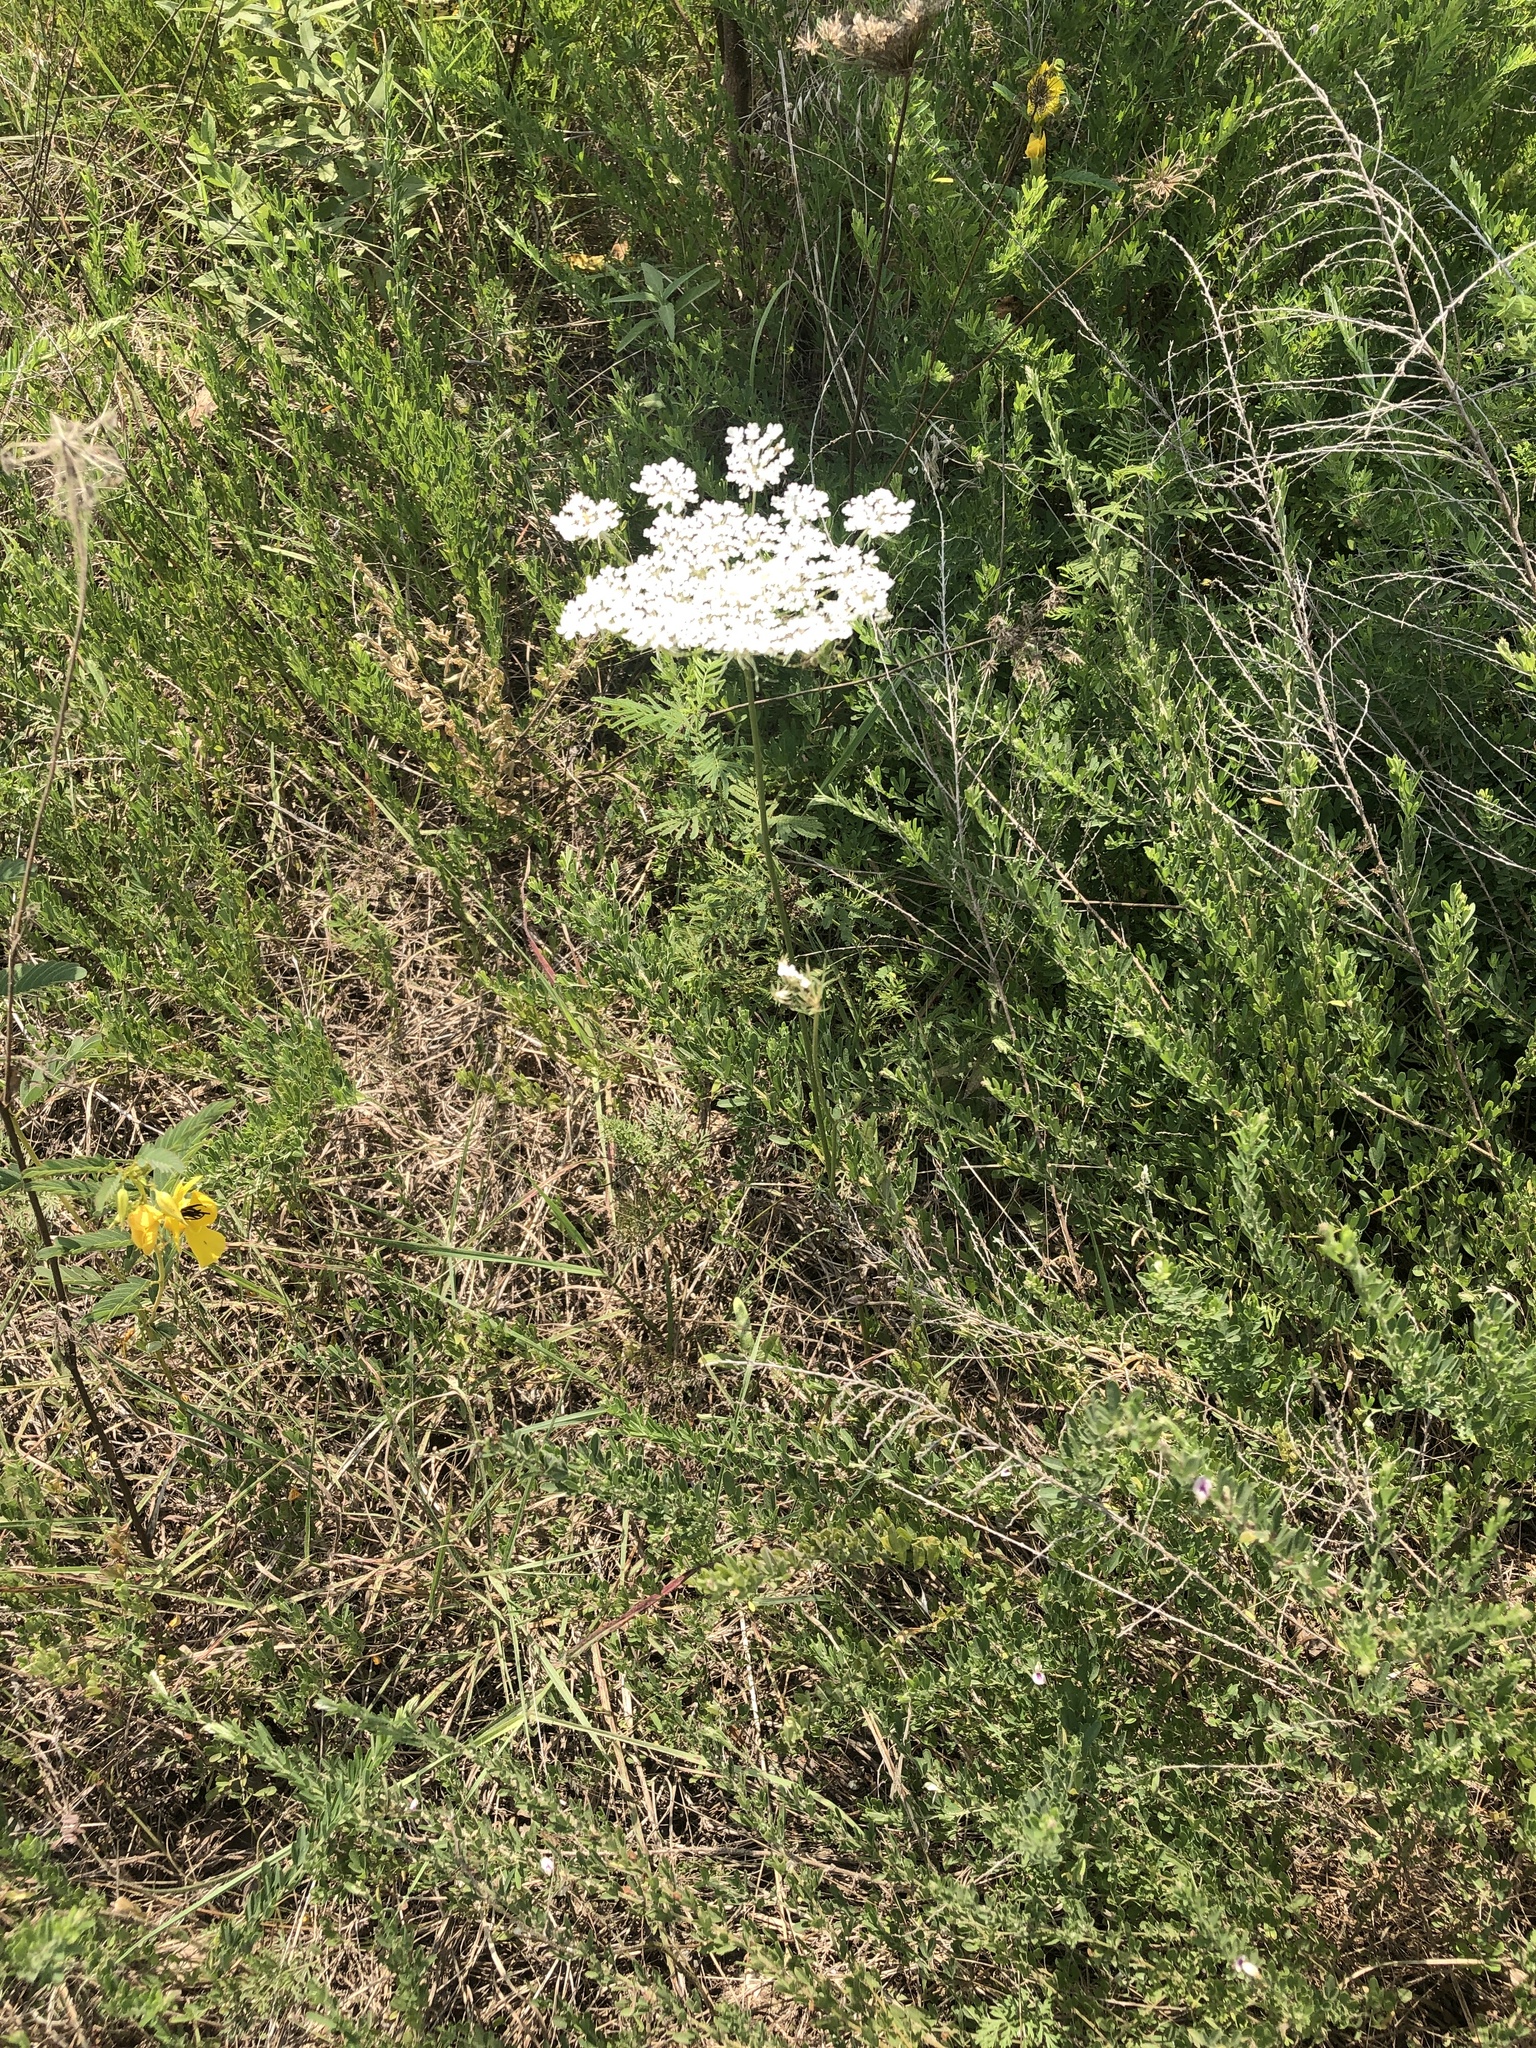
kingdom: Plantae
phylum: Tracheophyta
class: Magnoliopsida
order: Apiales
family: Apiaceae
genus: Daucus
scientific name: Daucus carota
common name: Wild carrot
